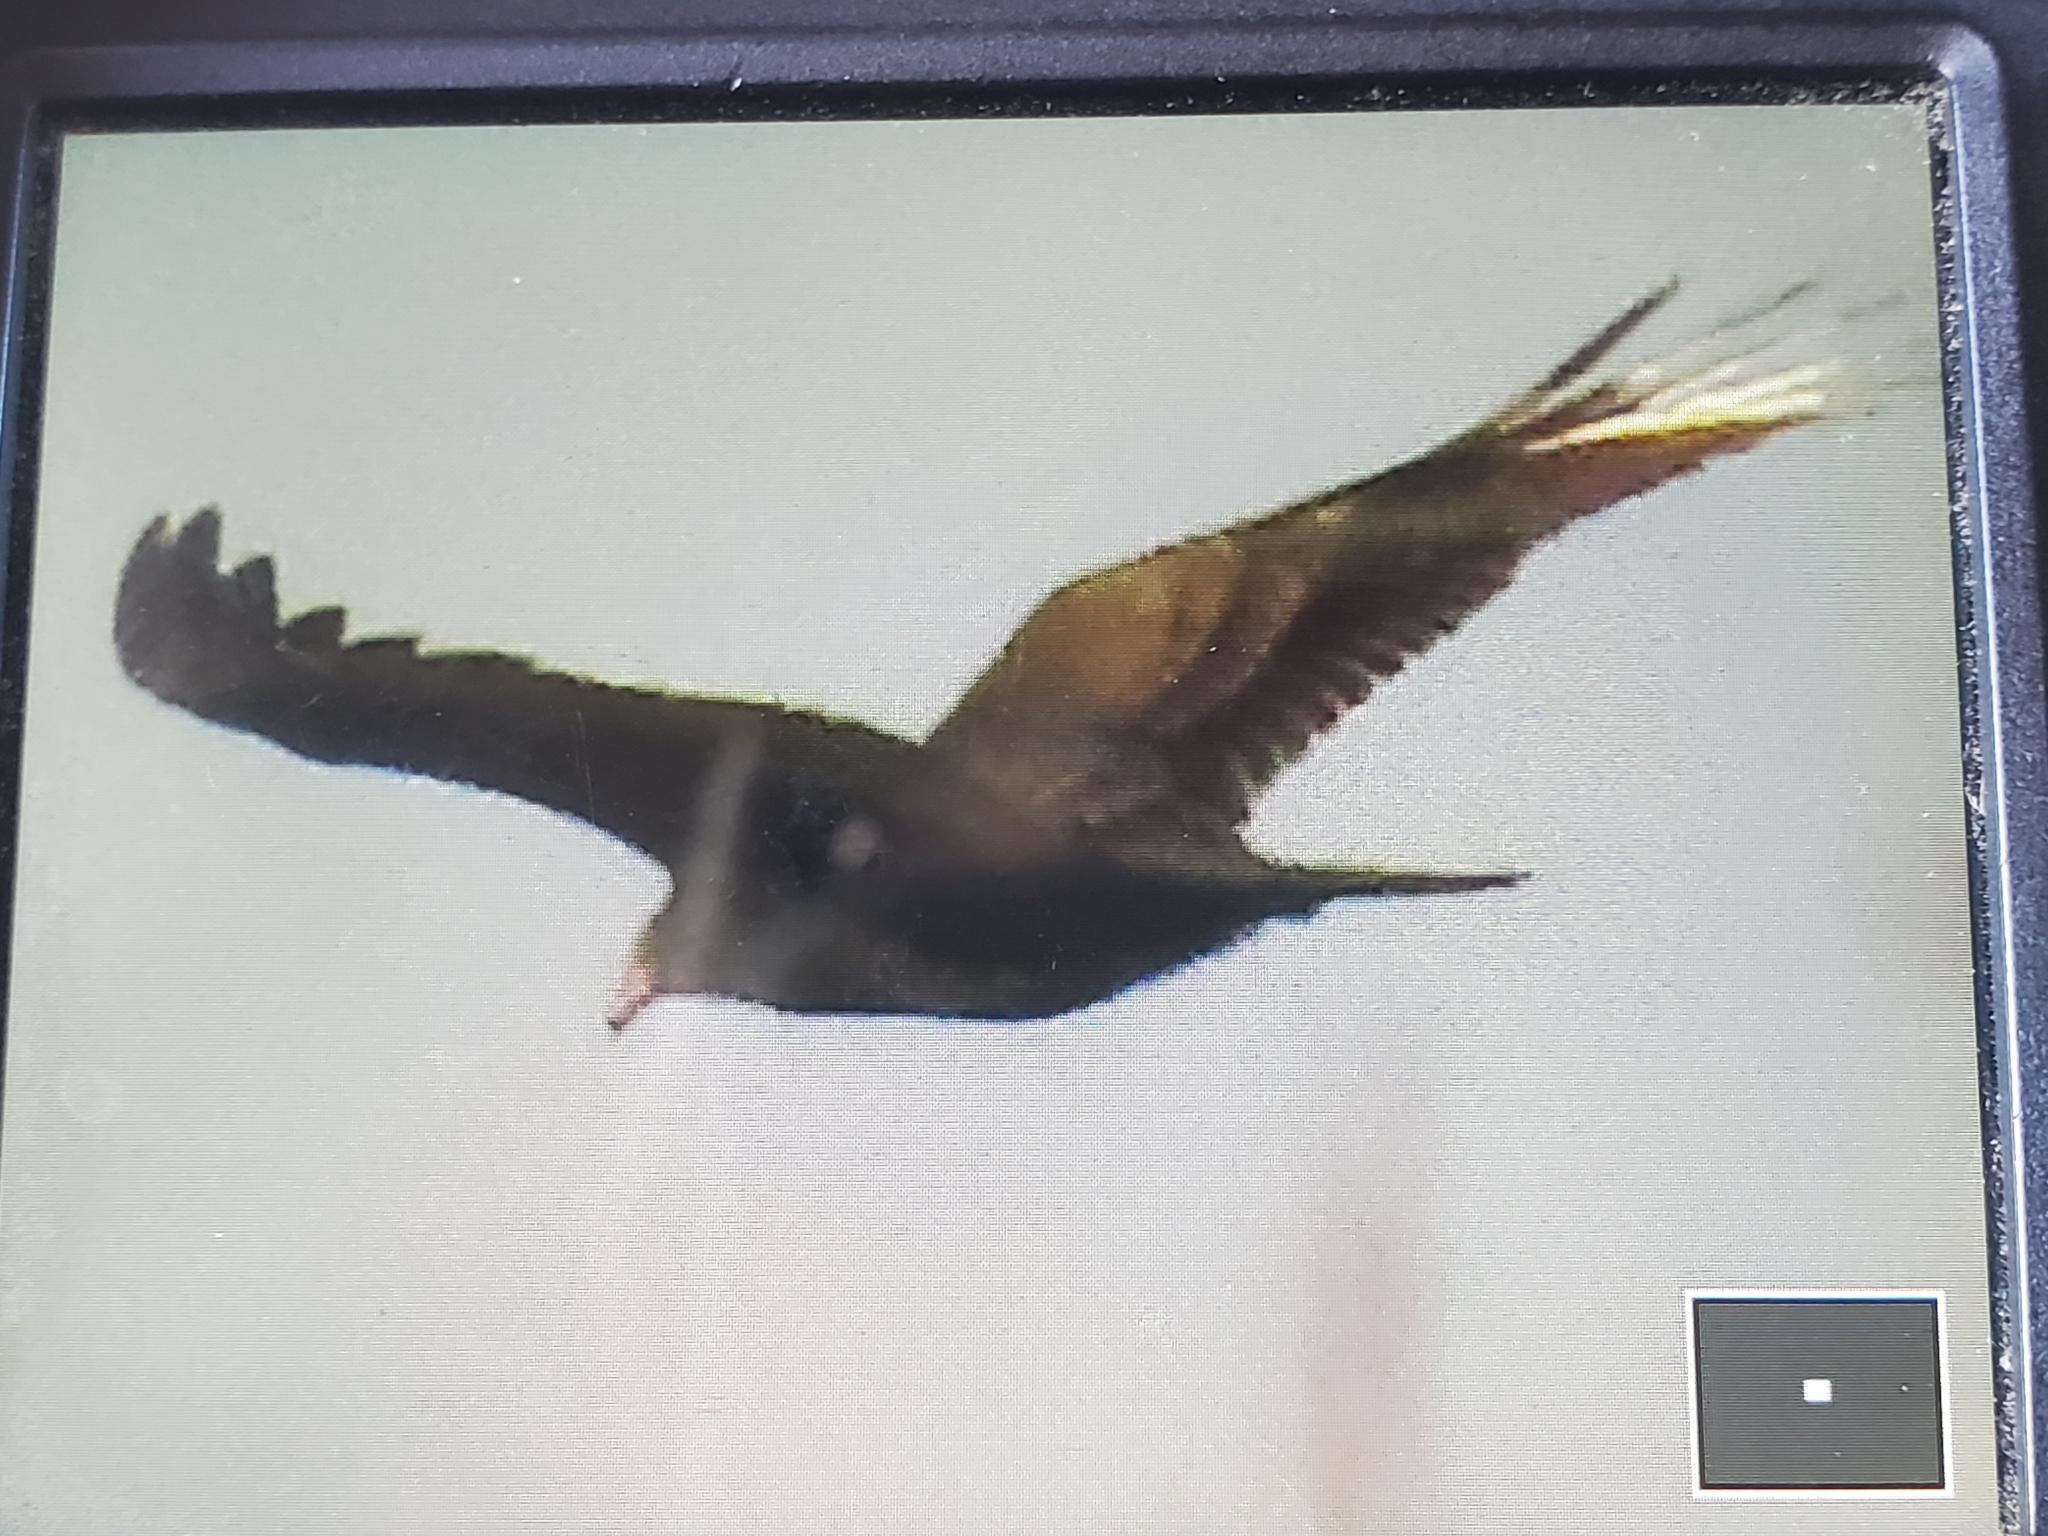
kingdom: Animalia
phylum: Chordata
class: Aves
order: Accipitriformes
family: Cathartidae
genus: Cathartes
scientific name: Cathartes aura
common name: Turkey vulture
